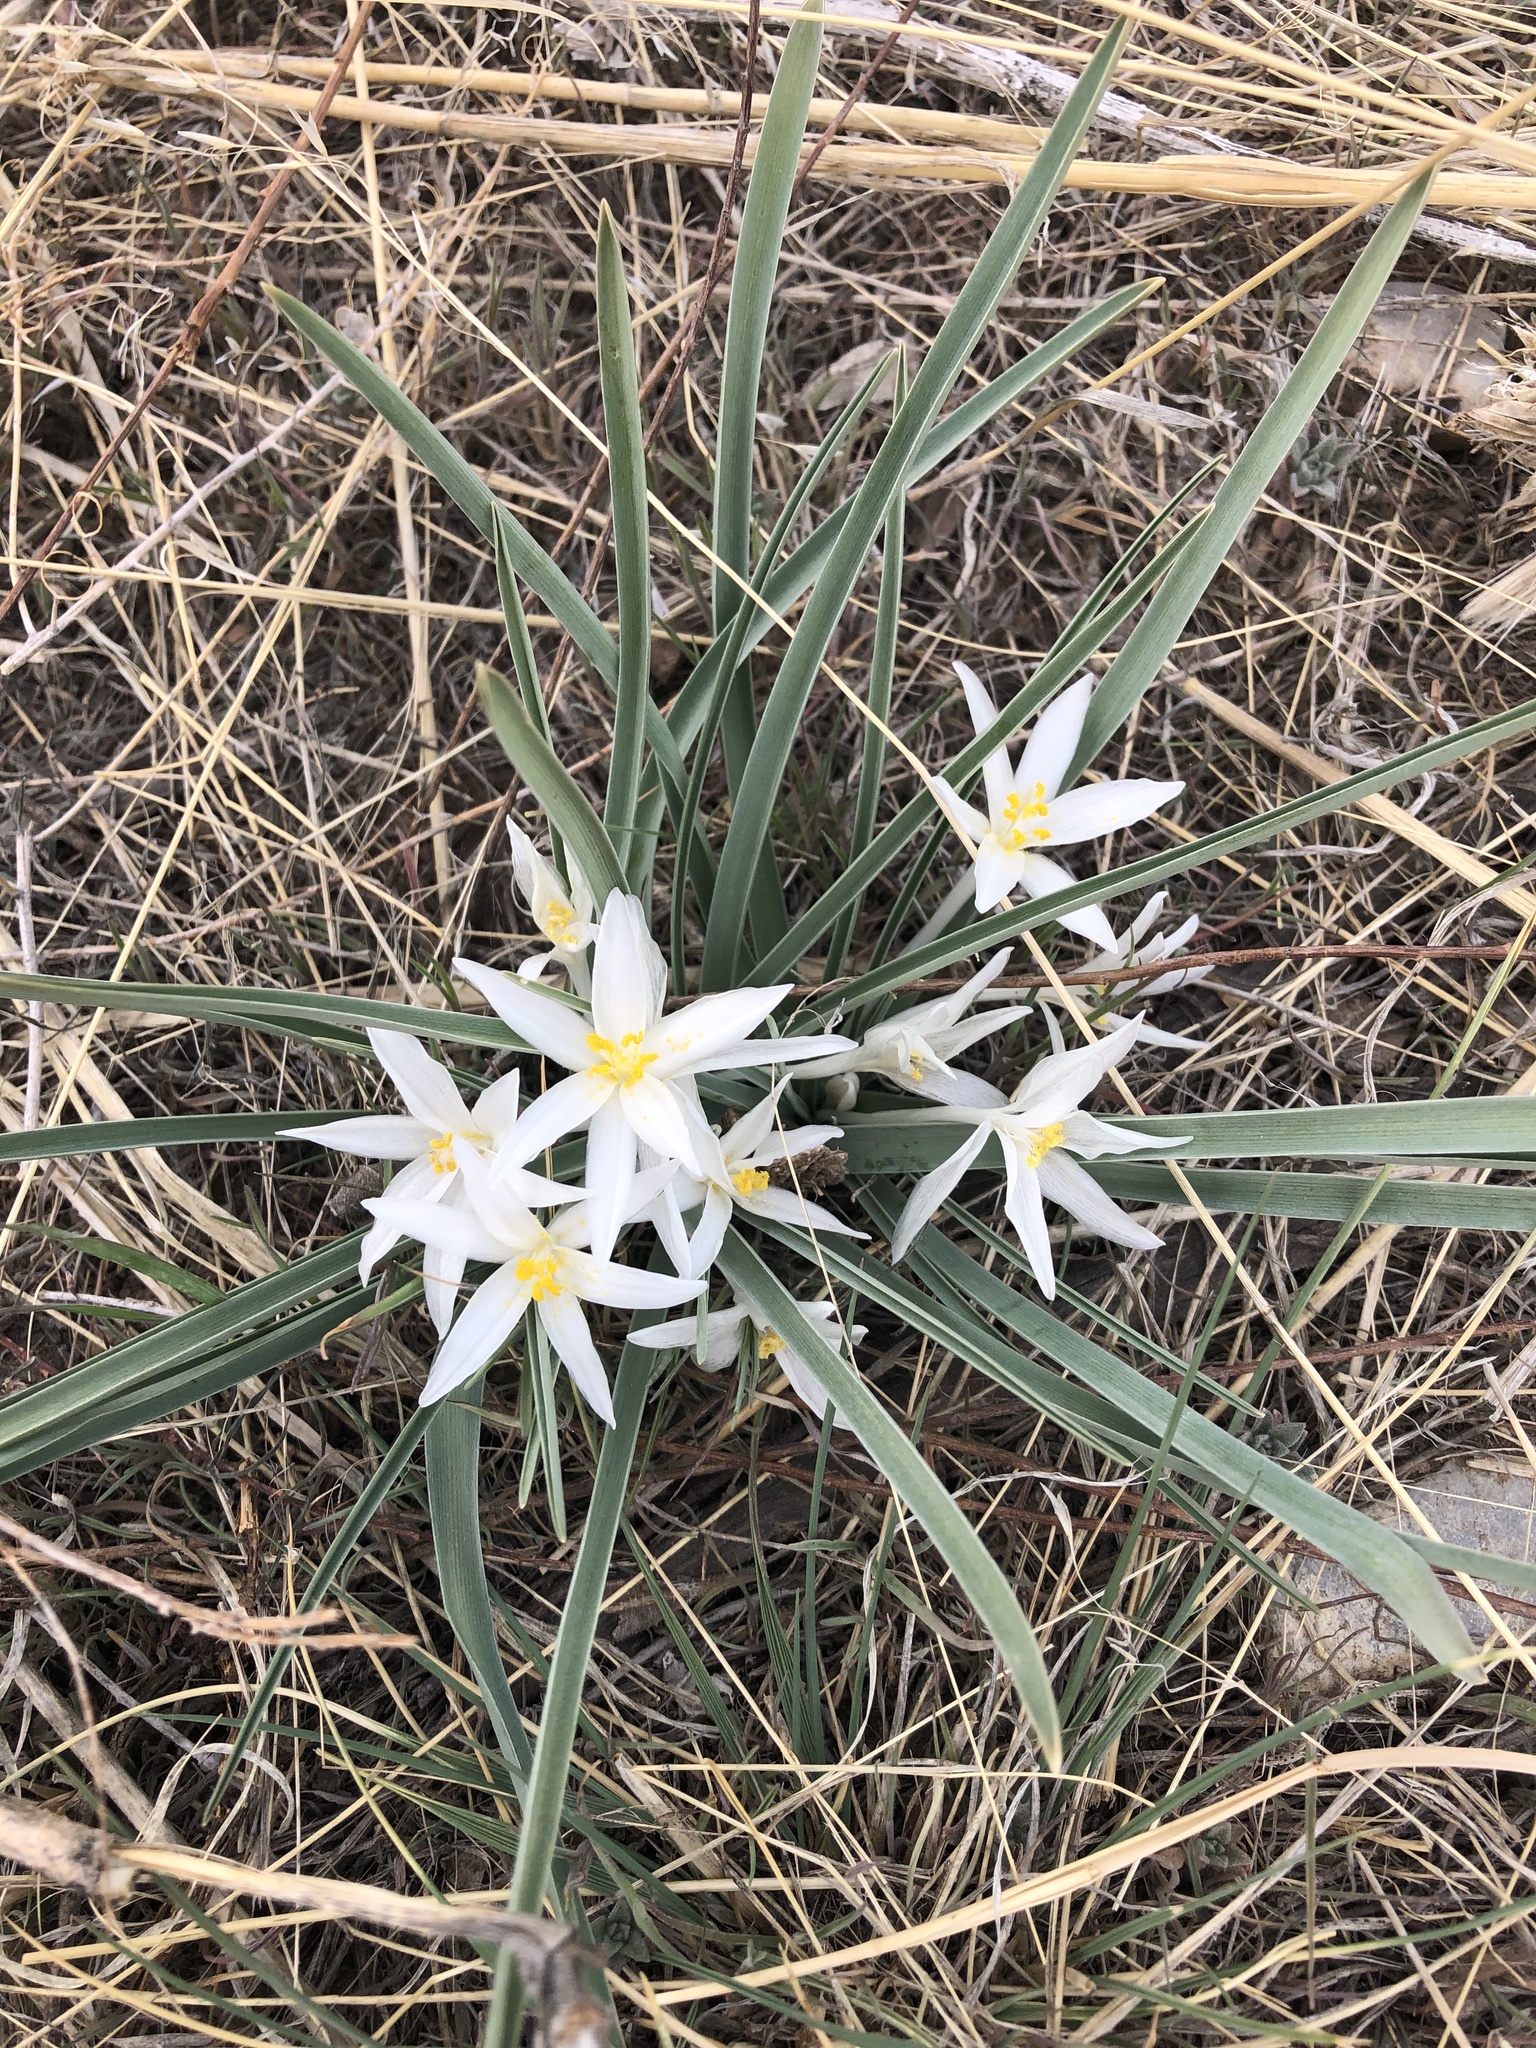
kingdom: Plantae
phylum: Tracheophyta
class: Liliopsida
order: Asparagales
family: Asparagaceae
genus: Leucocrinum
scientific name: Leucocrinum montanum
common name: Mountain-lily
